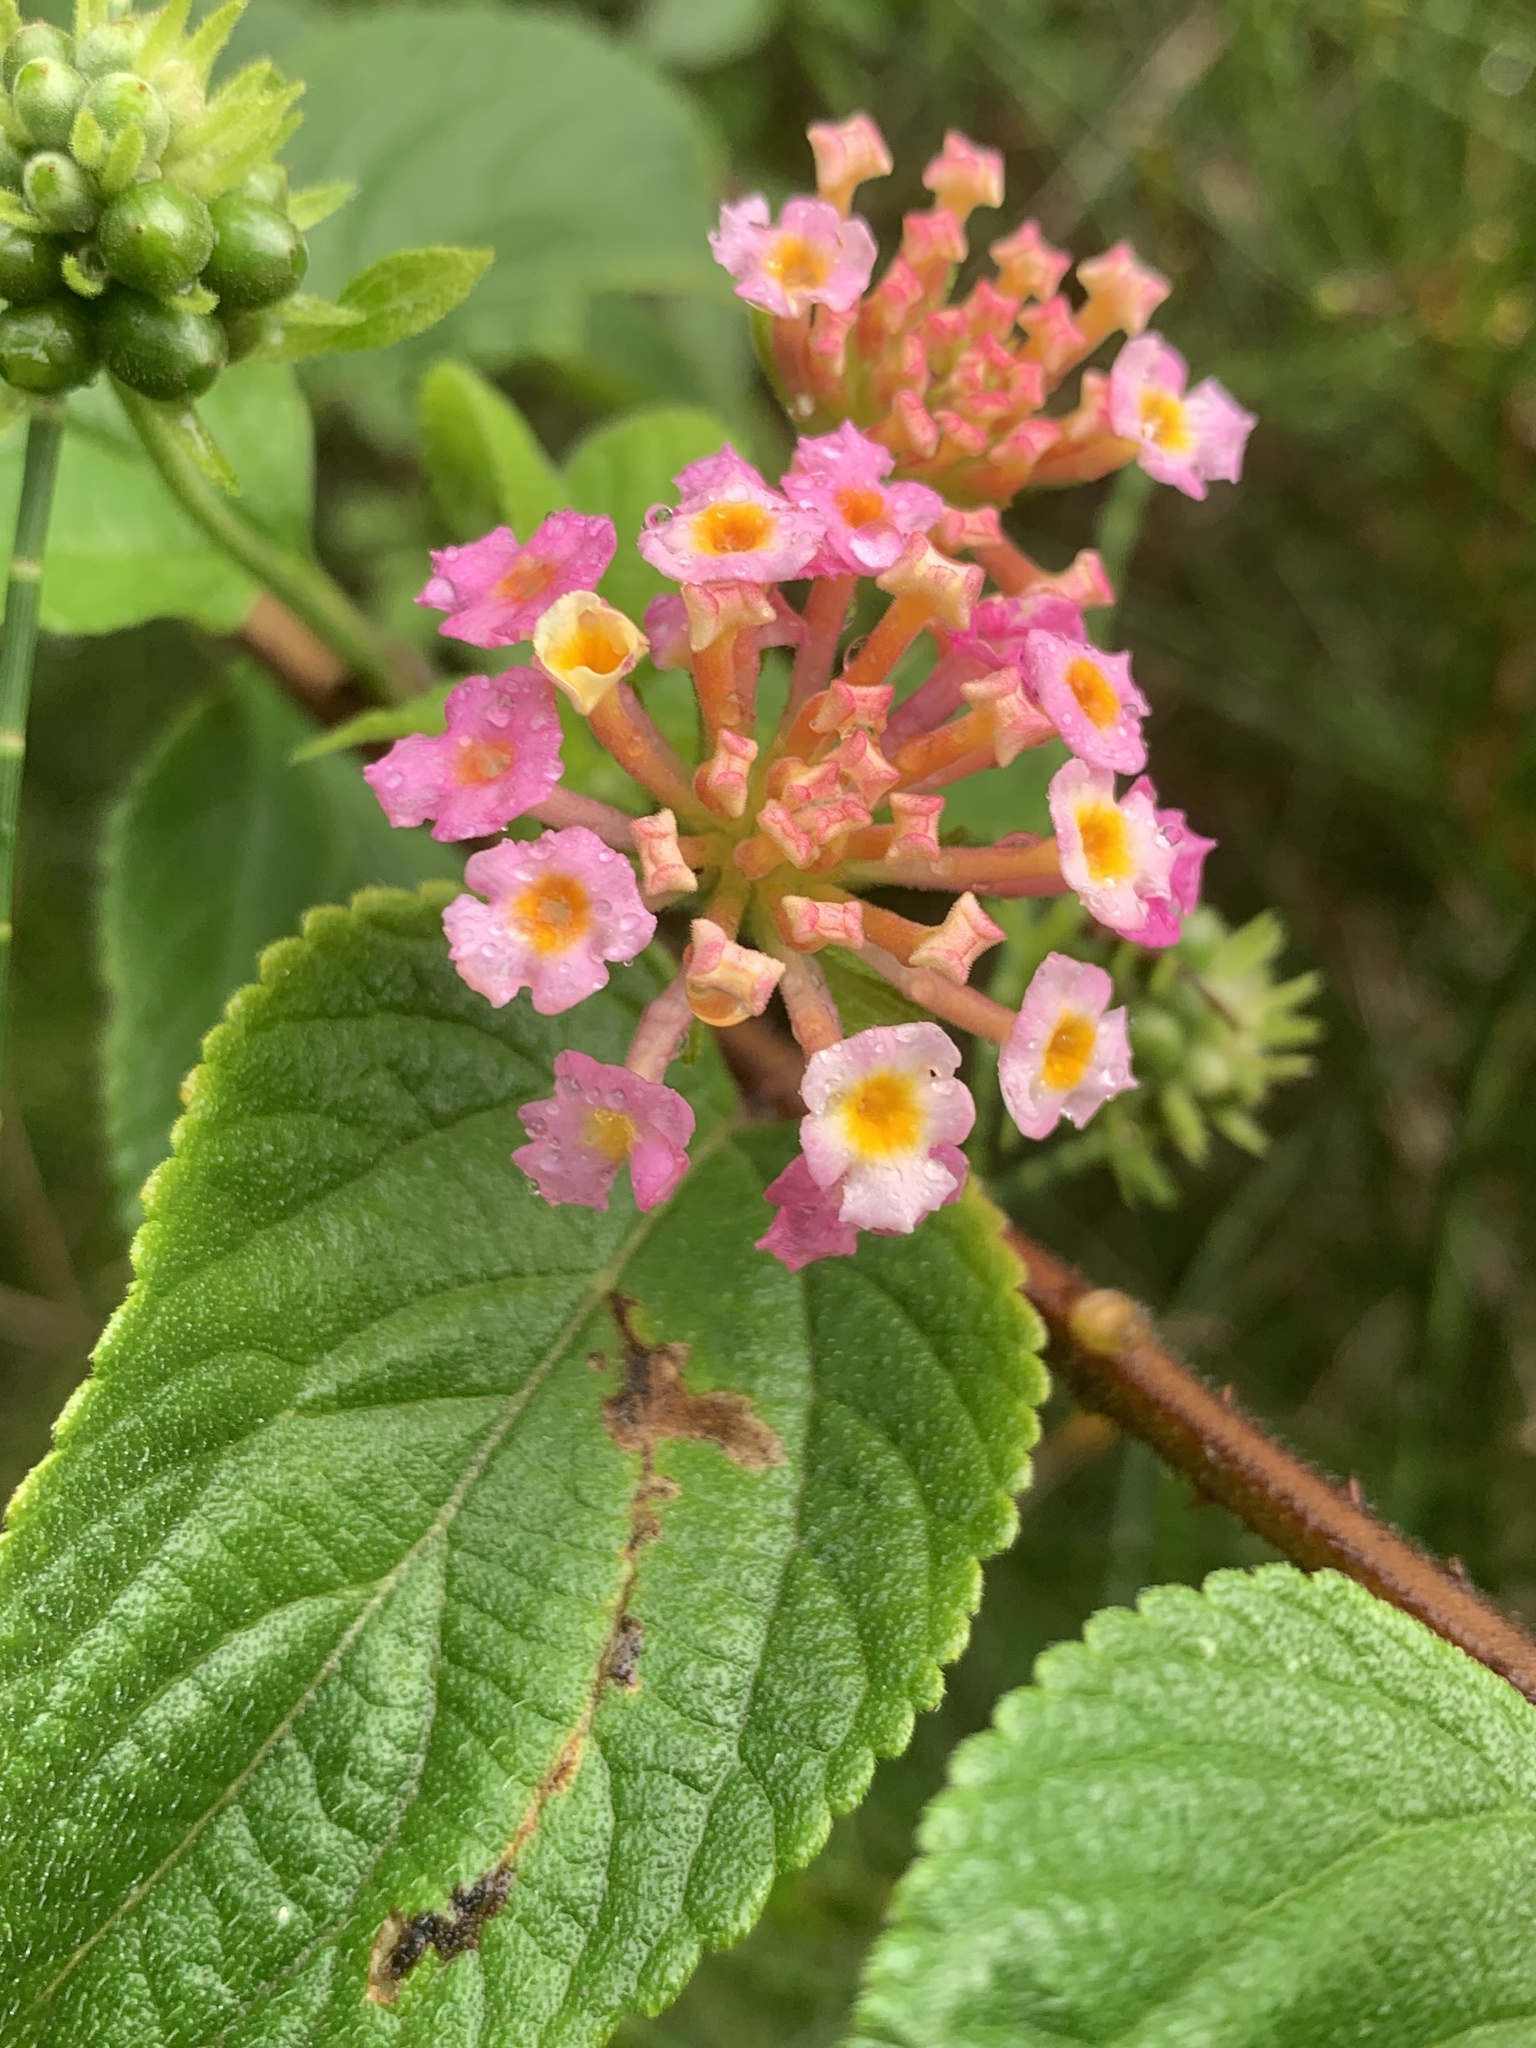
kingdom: Plantae
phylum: Tracheophyta
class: Magnoliopsida
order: Lamiales
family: Verbenaceae
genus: Lantana
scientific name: Lantana camara
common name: Lantana
